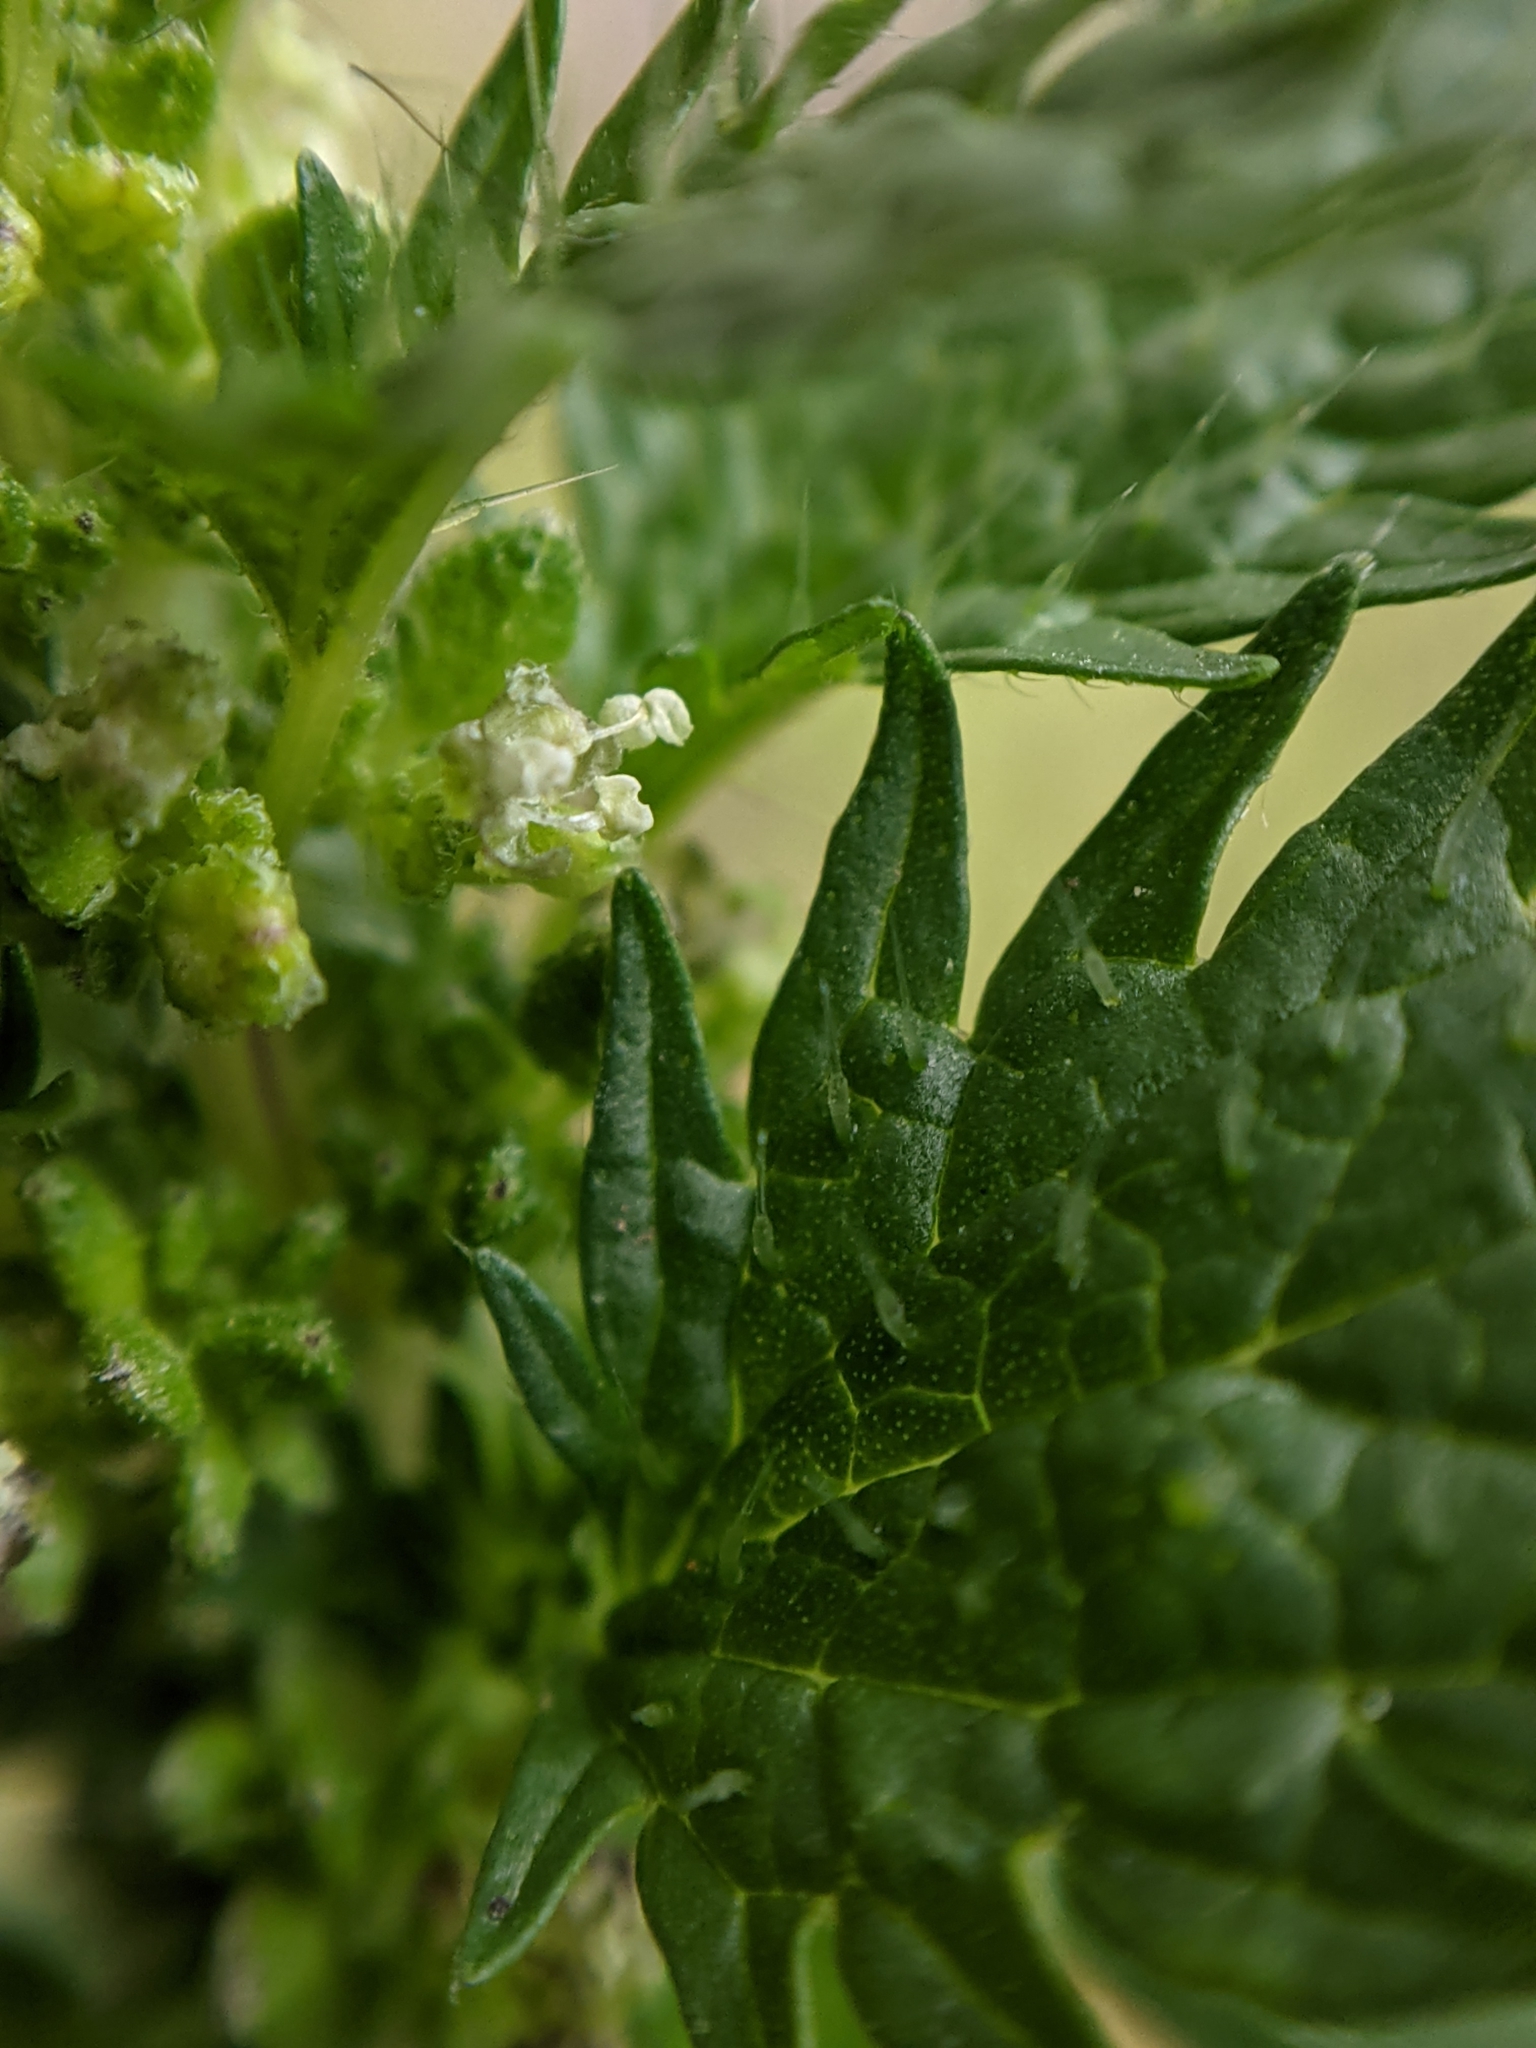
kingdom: Plantae
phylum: Tracheophyta
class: Magnoliopsida
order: Rosales
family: Urticaceae
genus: Urtica
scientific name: Urtica urens
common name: Dwarf nettle
